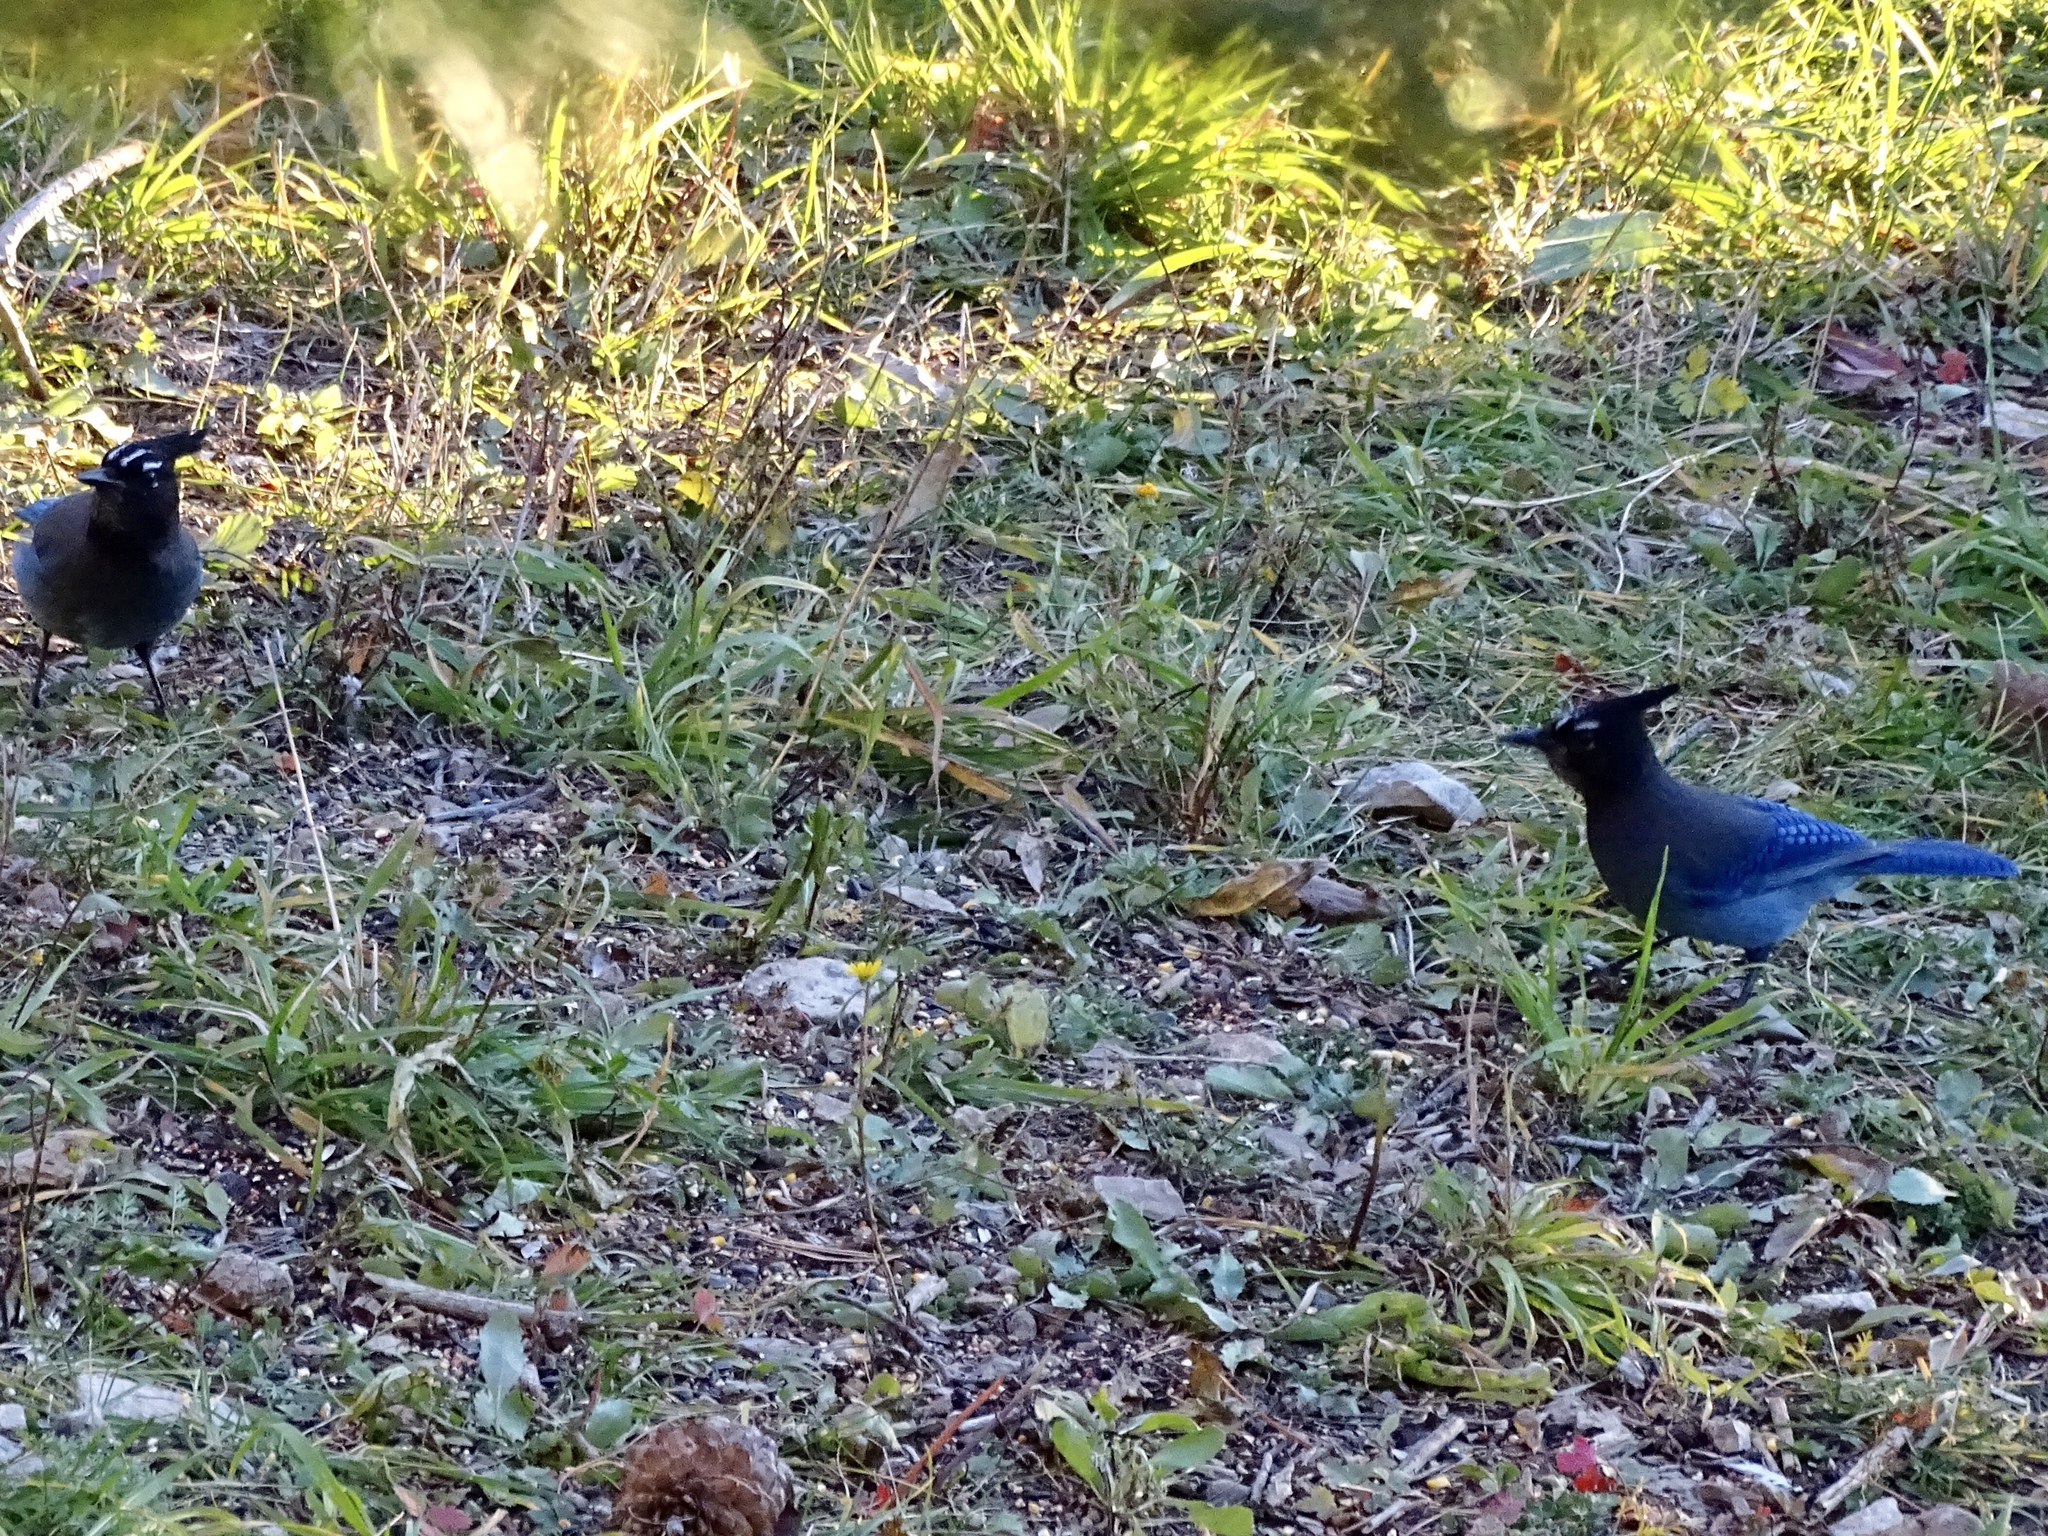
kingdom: Animalia
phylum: Chordata
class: Aves
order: Passeriformes
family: Corvidae
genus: Cyanocitta
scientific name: Cyanocitta stelleri
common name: Steller's jay
